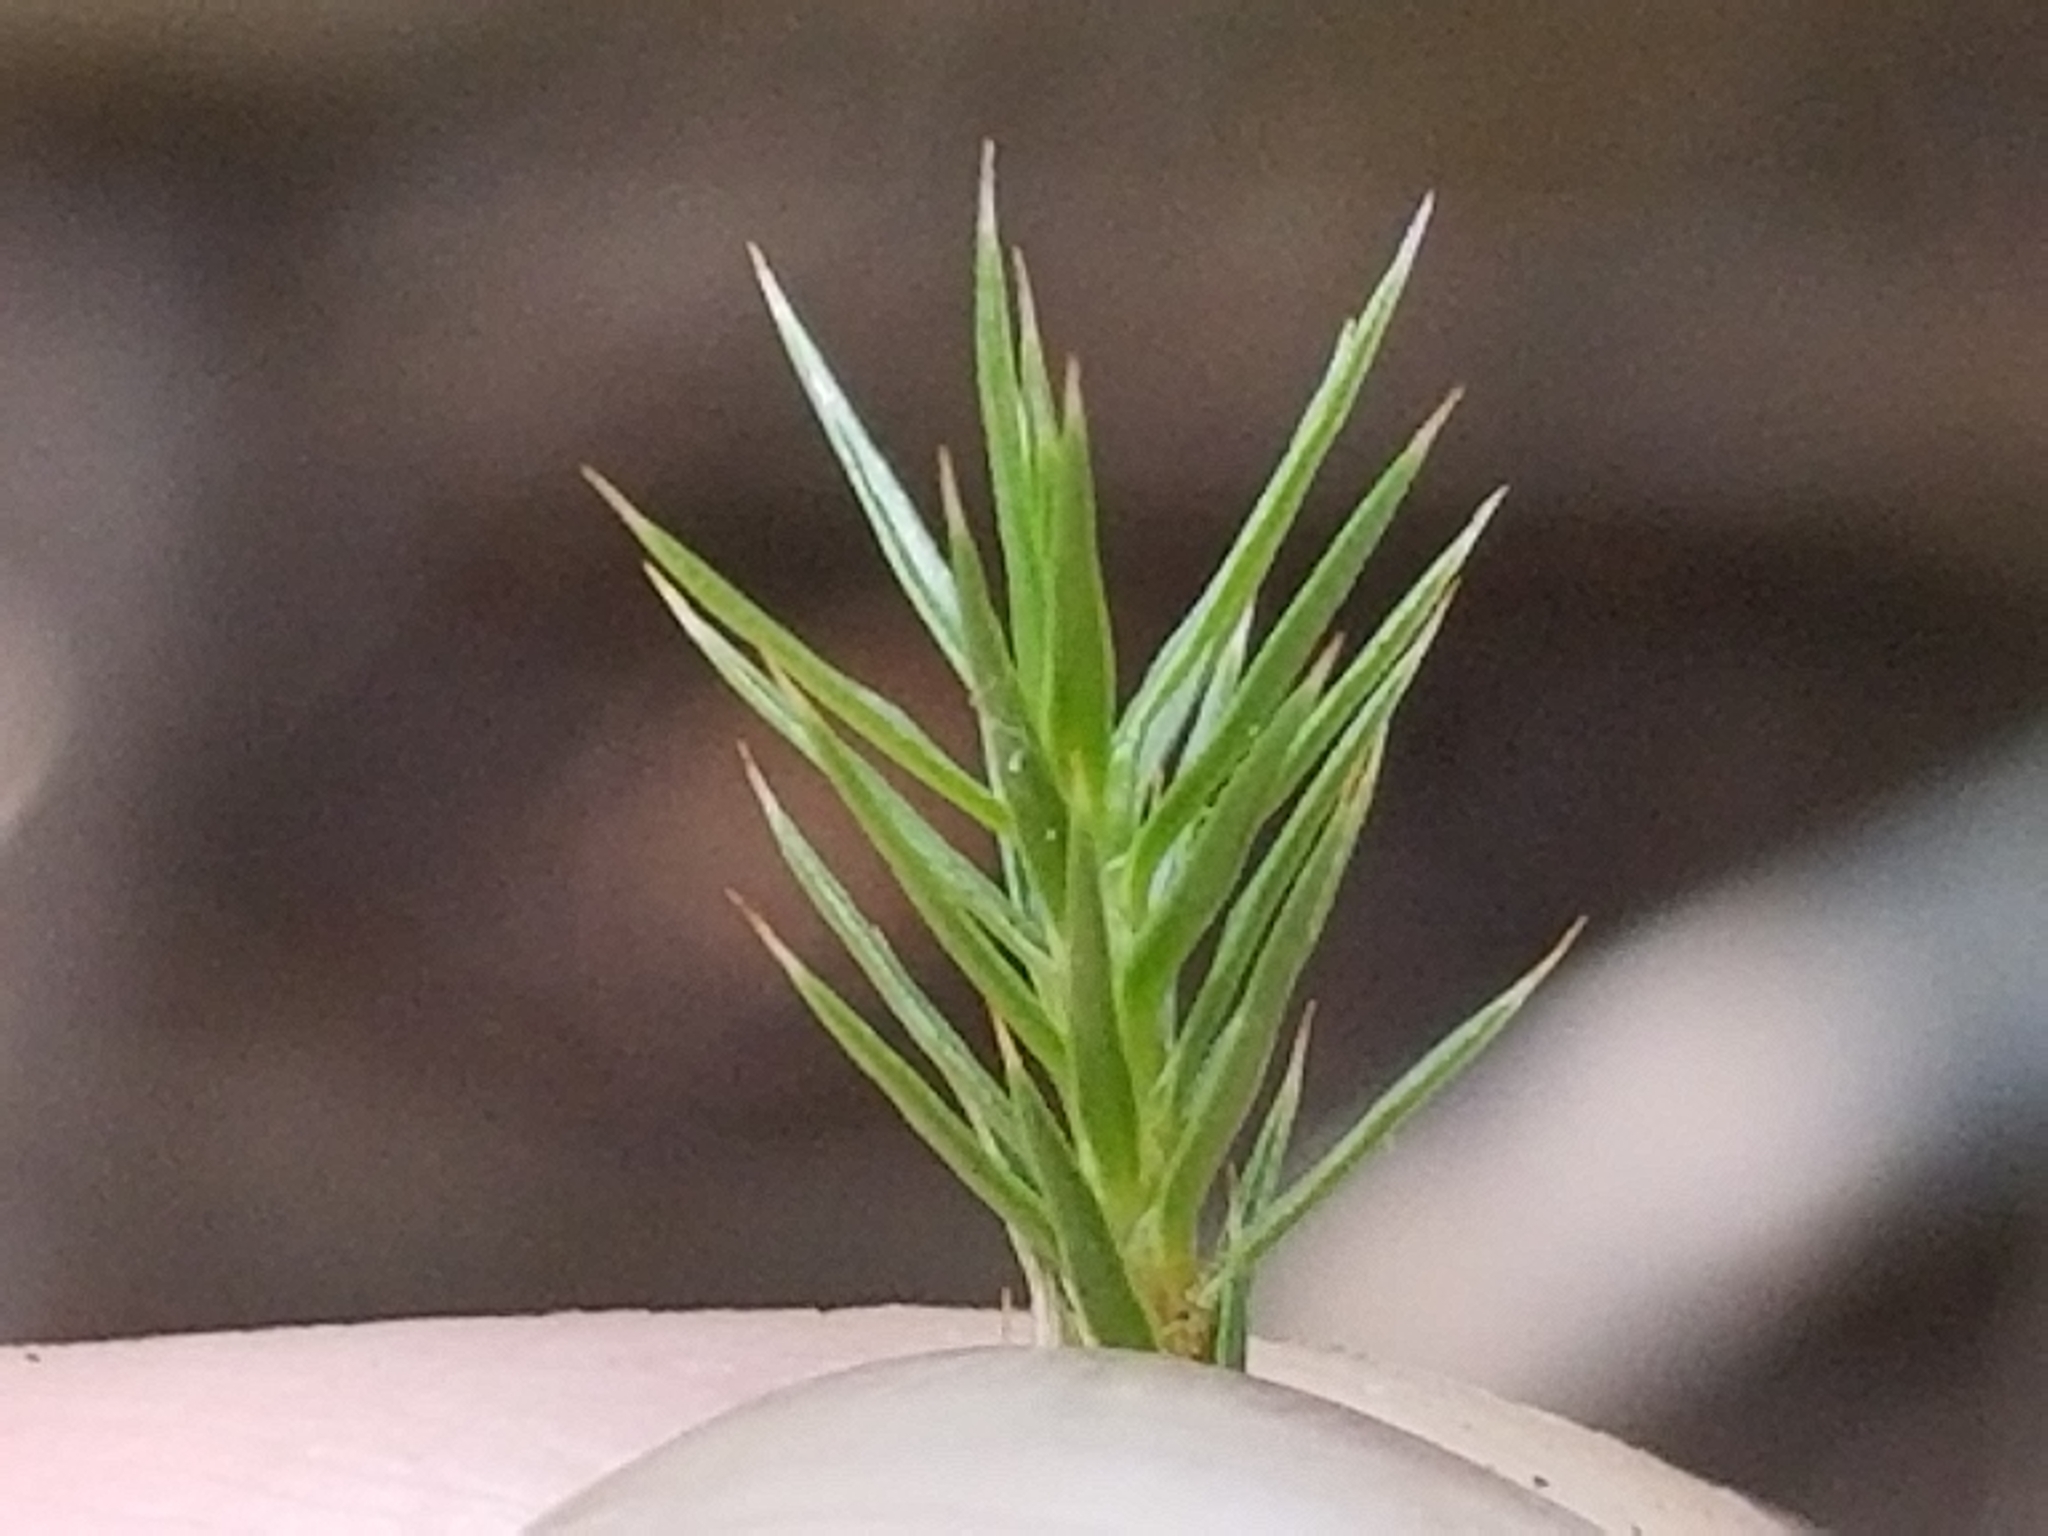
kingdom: Plantae
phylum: Bryophyta
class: Polytrichopsida
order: Polytrichales
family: Polytrichaceae
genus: Polytrichum
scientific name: Polytrichum juniperinum
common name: Juniper haircap moss
